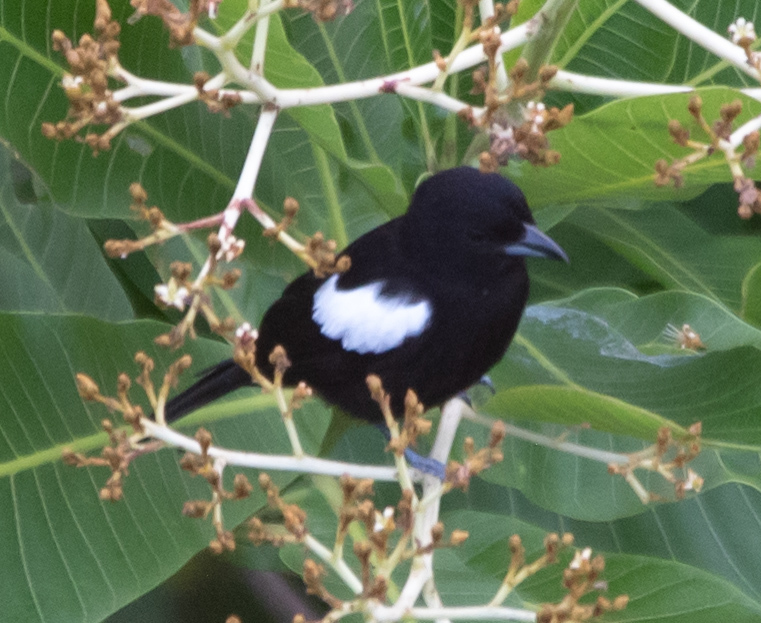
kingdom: Animalia
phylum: Chordata
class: Aves
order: Passeriformes
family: Thraupidae
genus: Loriotus
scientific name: Loriotus luctuosus
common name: White-shouldered tanager
